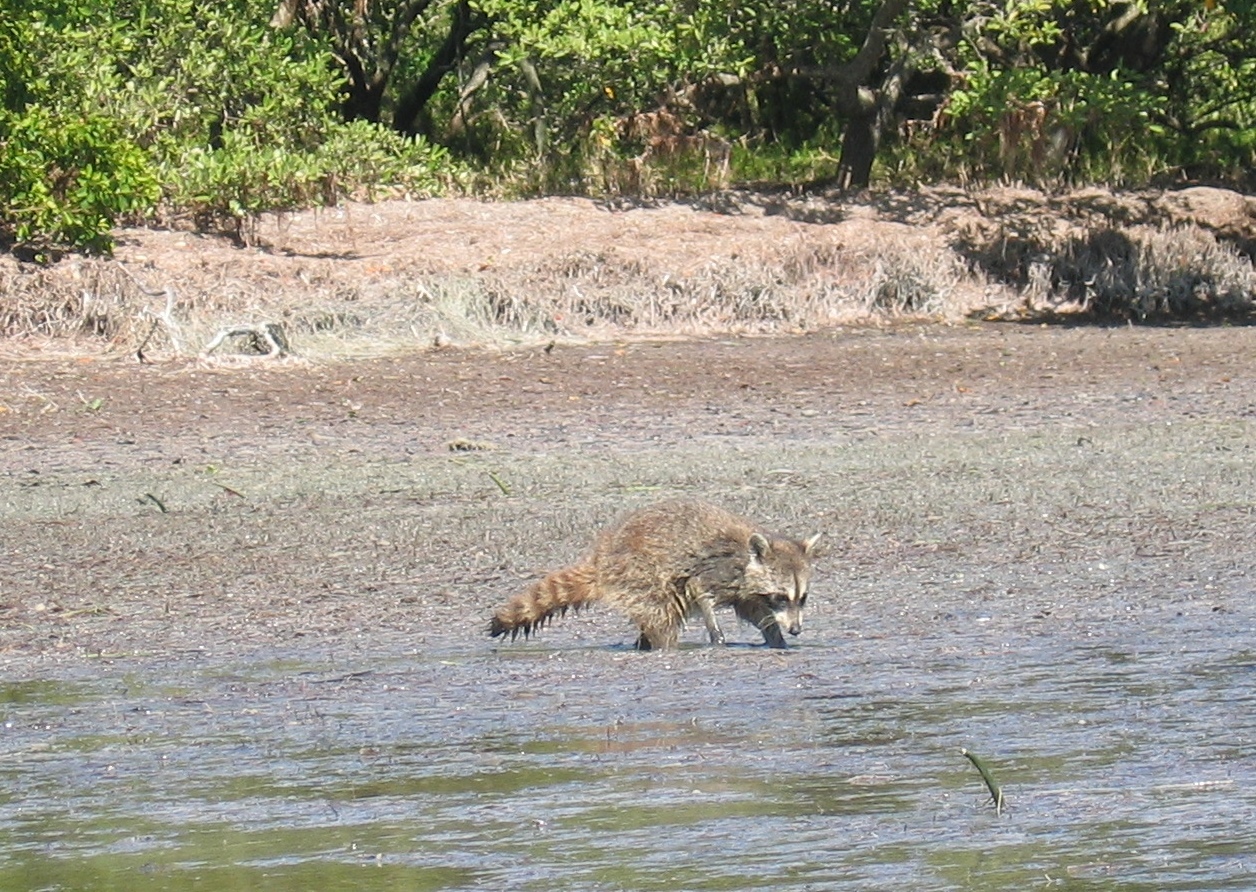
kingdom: Animalia
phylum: Chordata
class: Mammalia
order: Carnivora
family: Procyonidae
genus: Procyon
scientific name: Procyon lotor
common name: Raccoon
